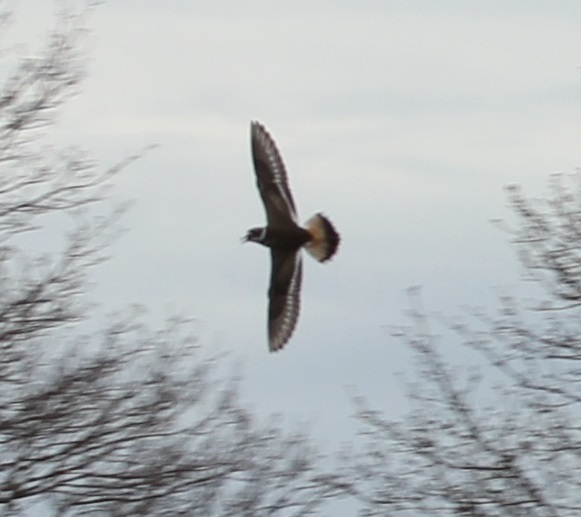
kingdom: Animalia
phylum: Chordata
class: Aves
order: Charadriiformes
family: Charadriidae
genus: Charadrius
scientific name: Charadrius vociferus
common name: Killdeer
